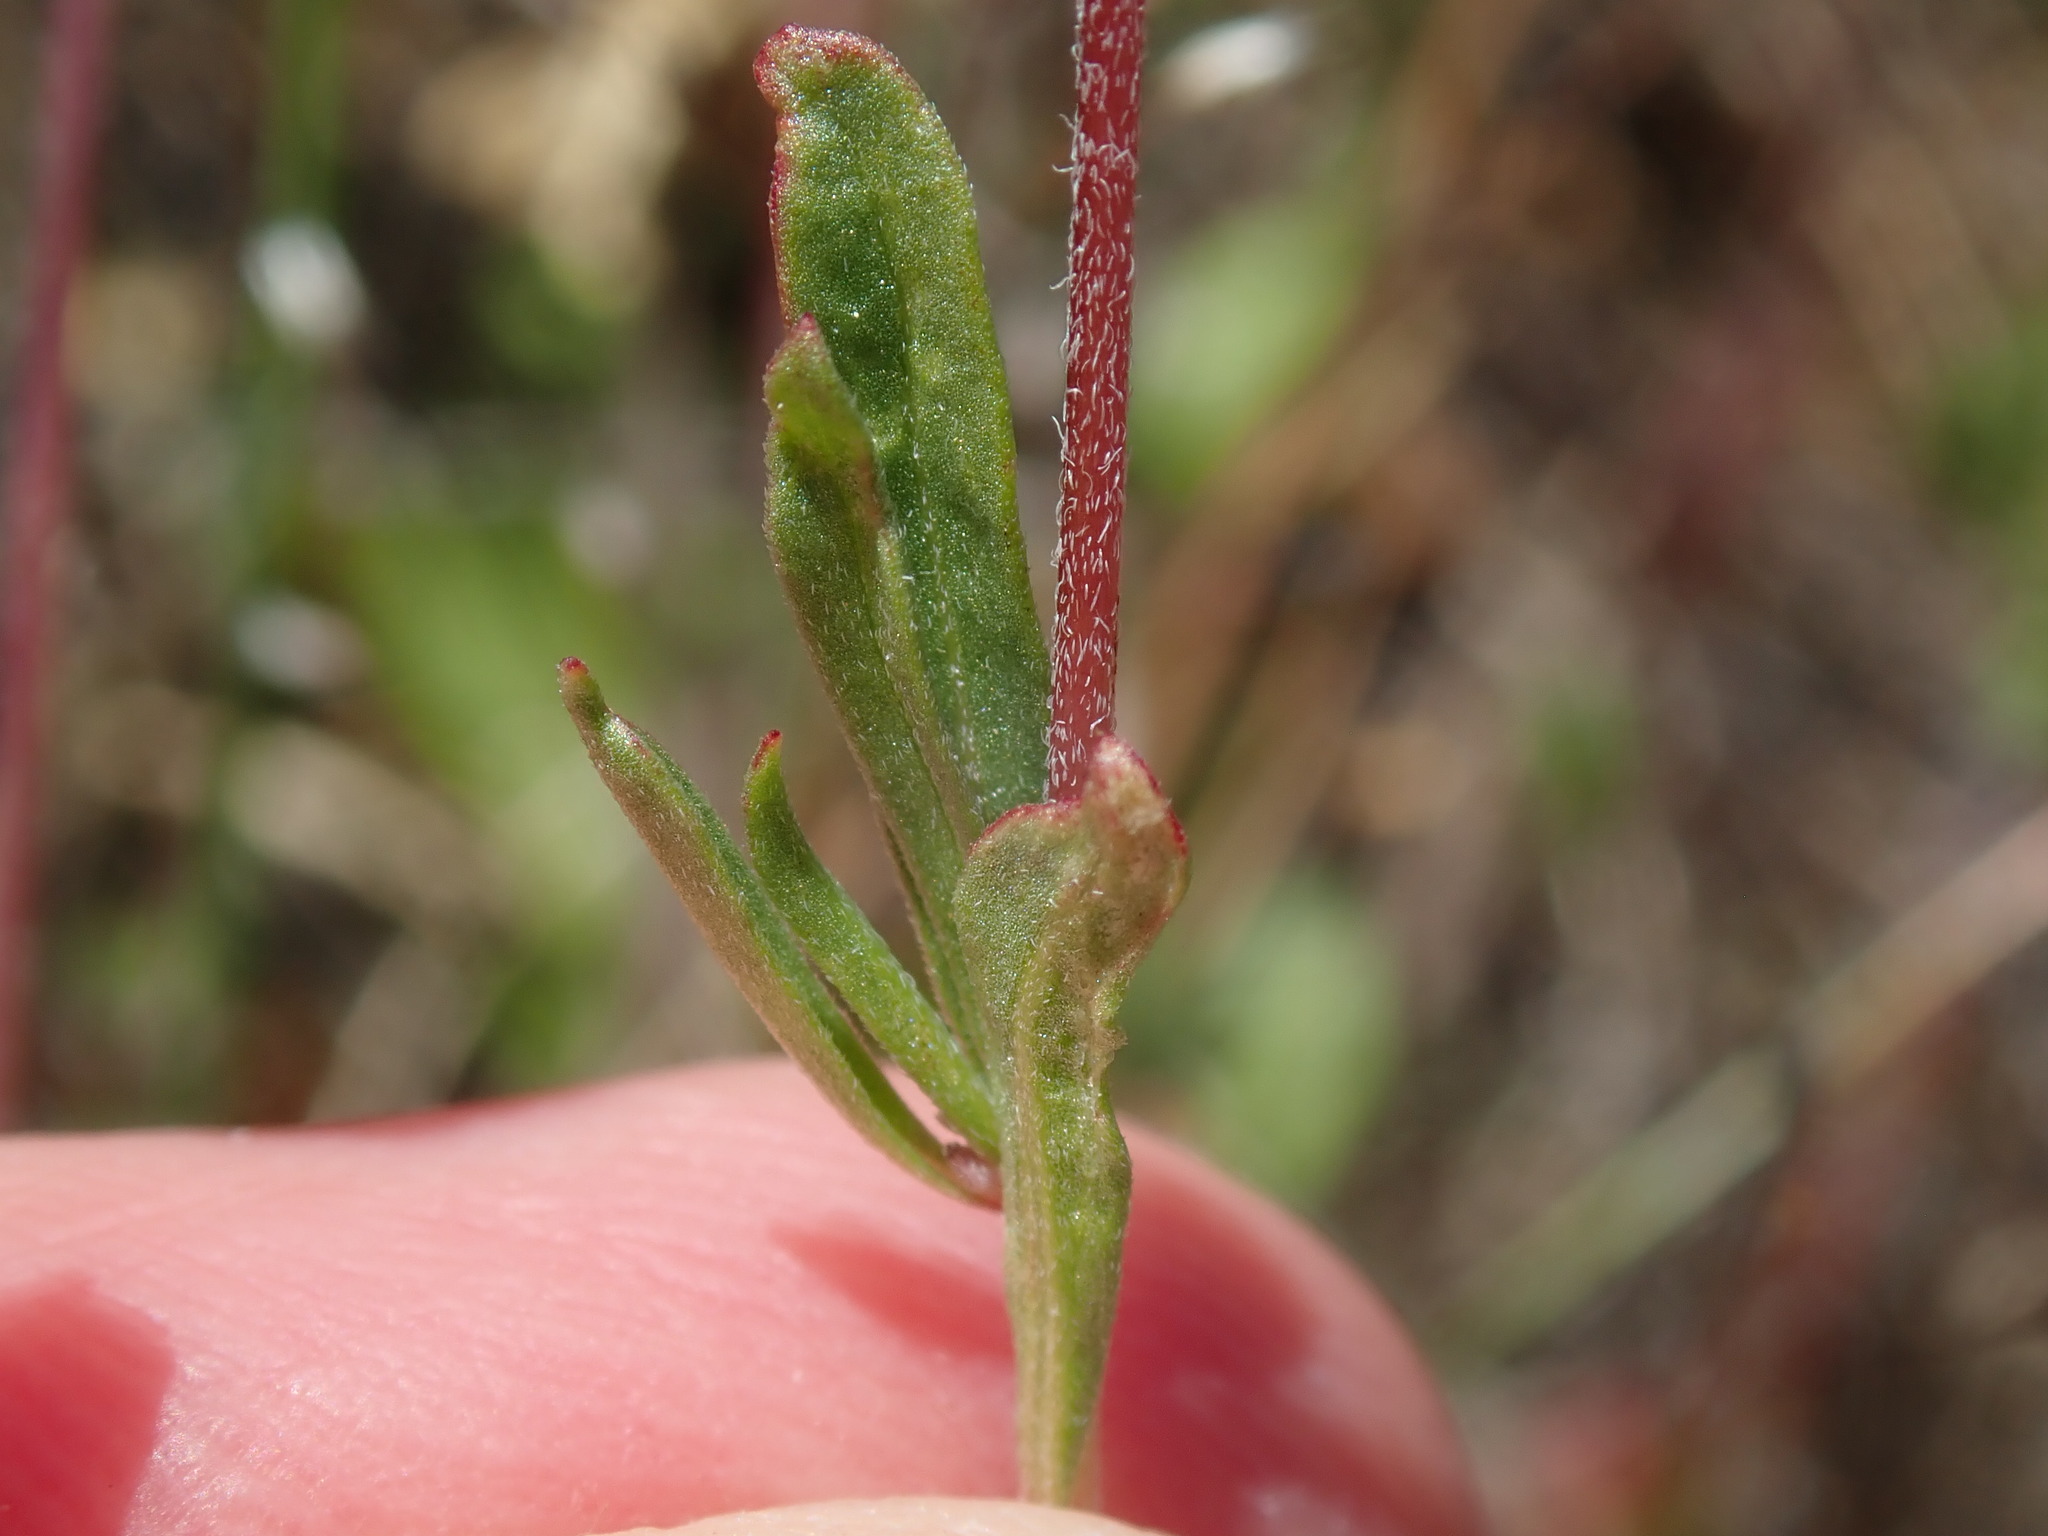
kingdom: Plantae
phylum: Tracheophyta
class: Magnoliopsida
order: Myrtales
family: Onagraceae
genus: Clarkia
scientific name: Clarkia purpurea
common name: Purple clarkia
